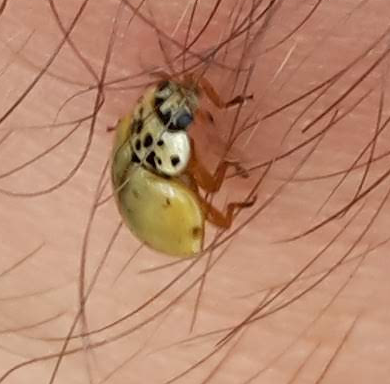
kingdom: Animalia
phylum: Arthropoda
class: Insecta
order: Coleoptera
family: Coccinellidae
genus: Harmonia
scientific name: Harmonia quadripunctata
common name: Cream-streaked ladybird
